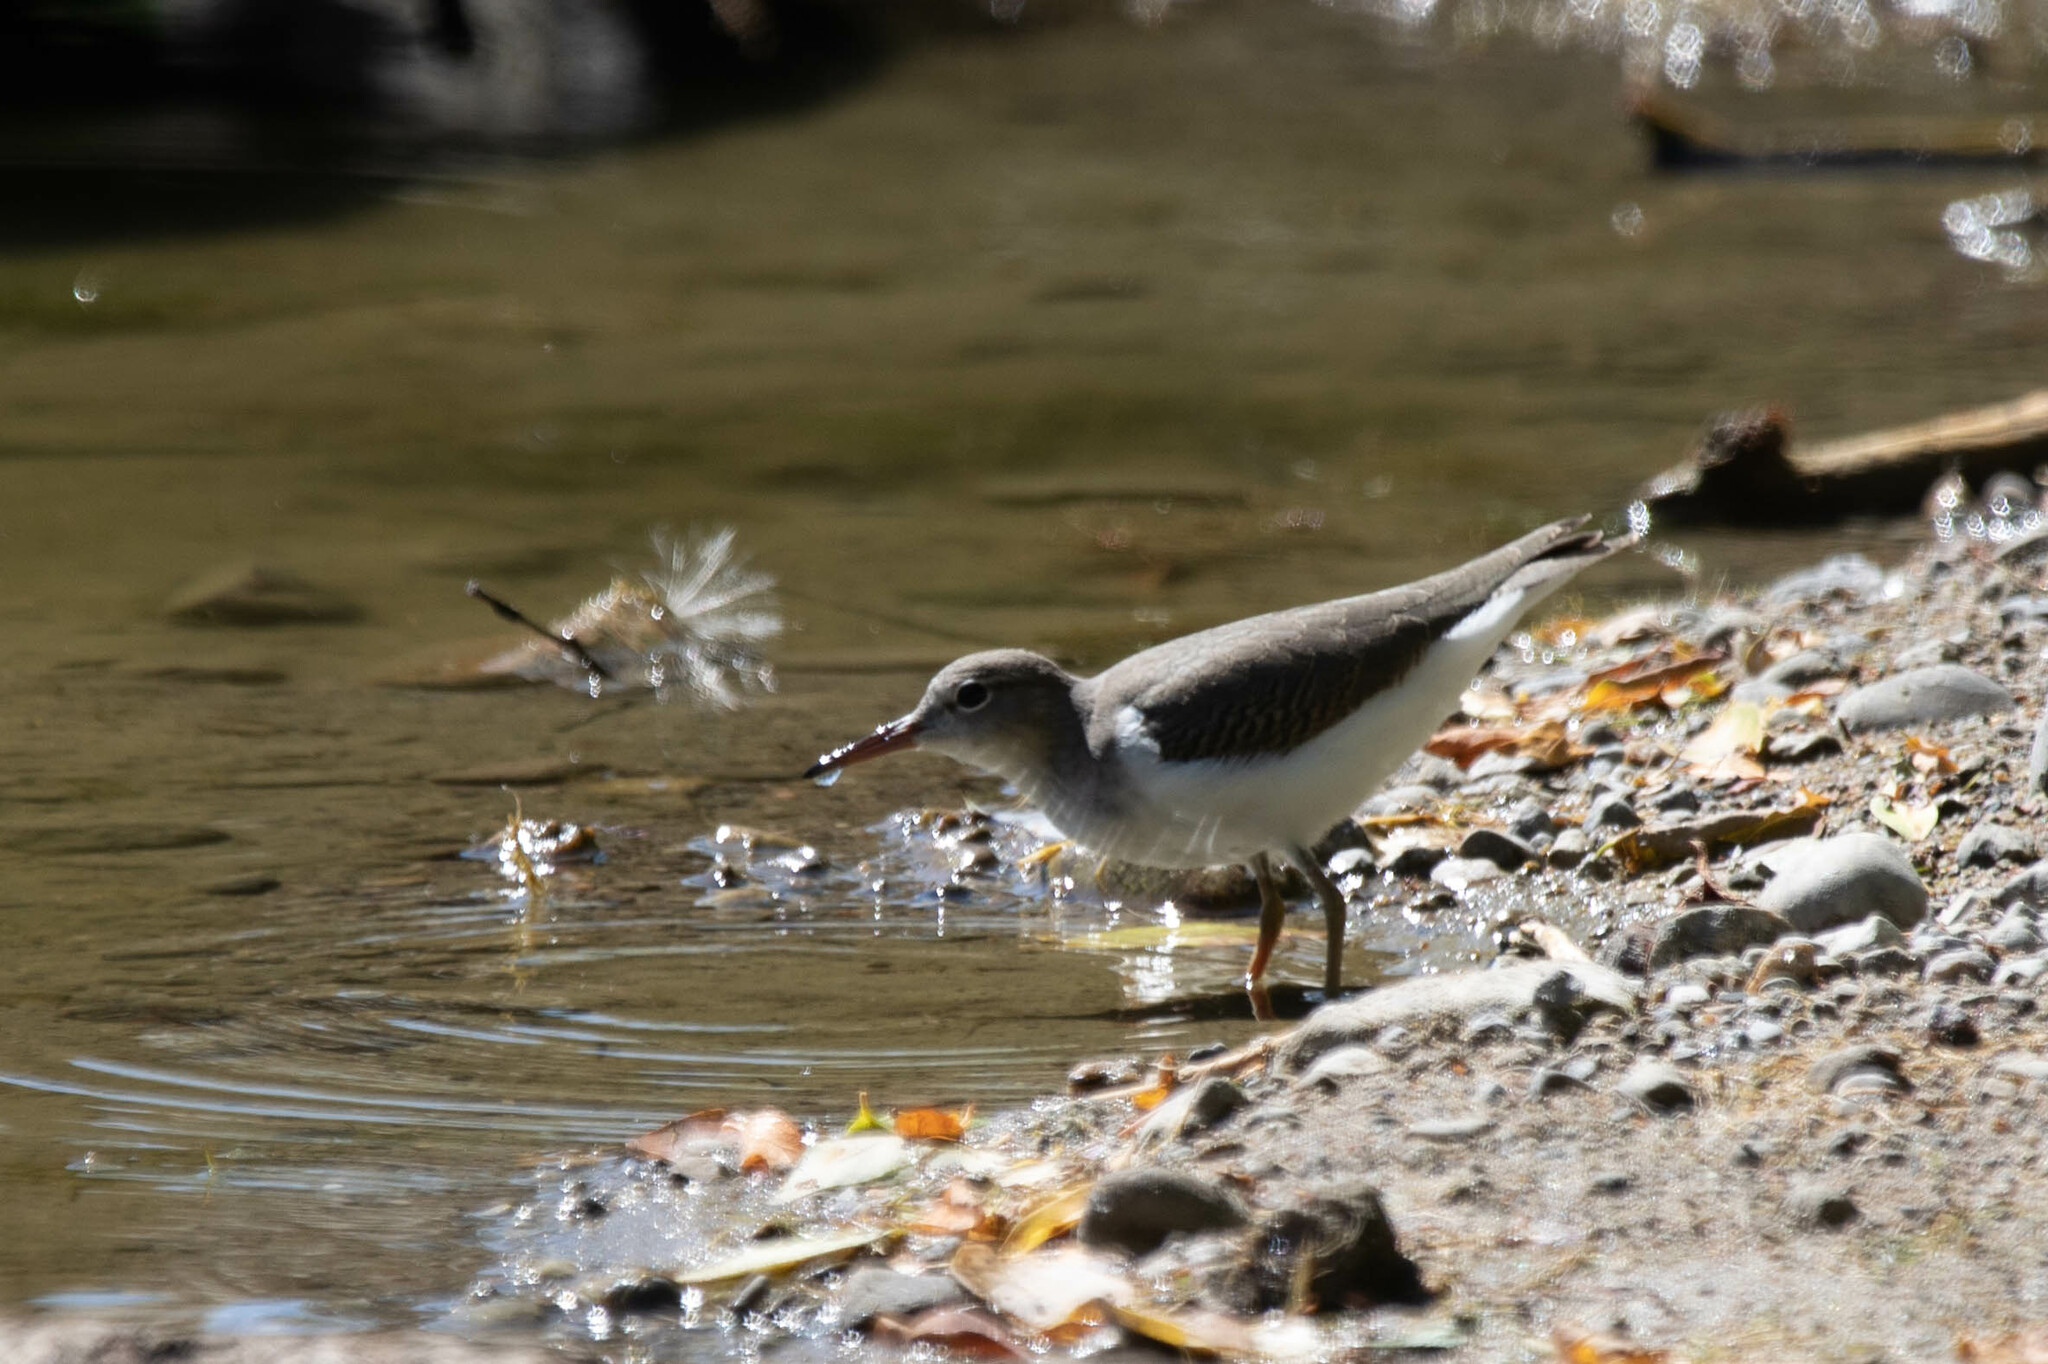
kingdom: Animalia
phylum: Chordata
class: Aves
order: Charadriiformes
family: Scolopacidae
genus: Actitis
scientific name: Actitis macularius
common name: Spotted sandpiper
